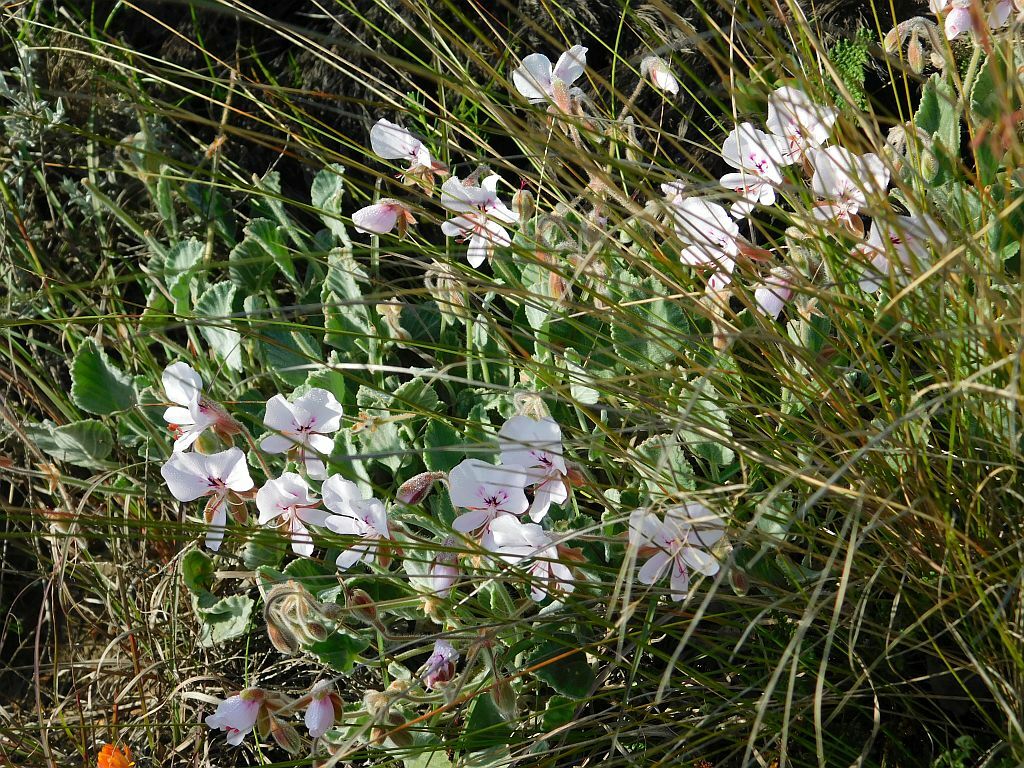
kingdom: Plantae
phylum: Tracheophyta
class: Magnoliopsida
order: Geraniales
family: Geraniaceae
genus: Pelargonium
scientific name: Pelargonium ovale
